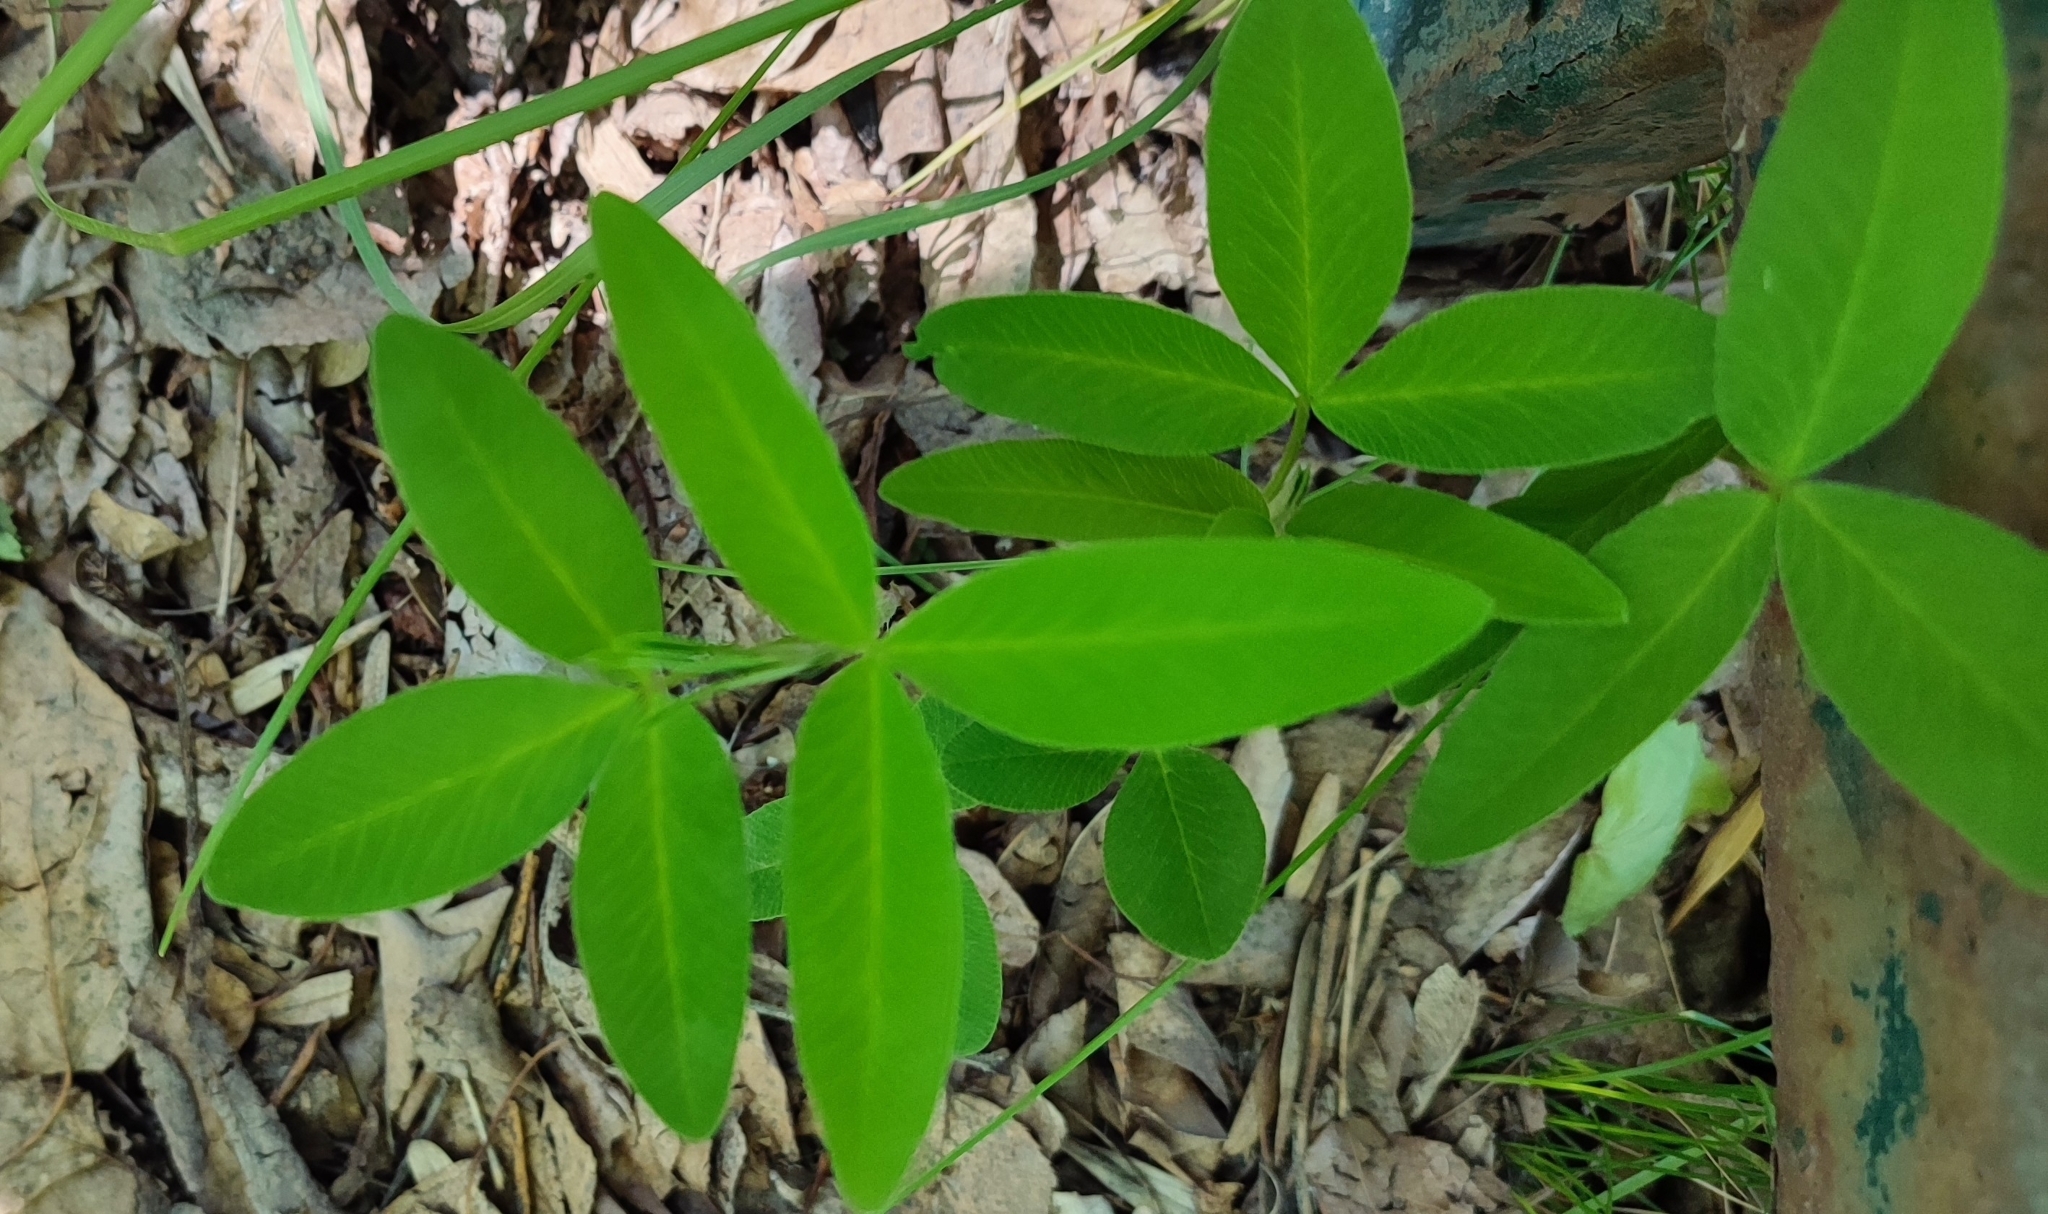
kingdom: Plantae
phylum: Tracheophyta
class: Magnoliopsida
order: Fabales
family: Fabaceae
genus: Trifolium
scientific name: Trifolium medium
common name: Zigzag clover
